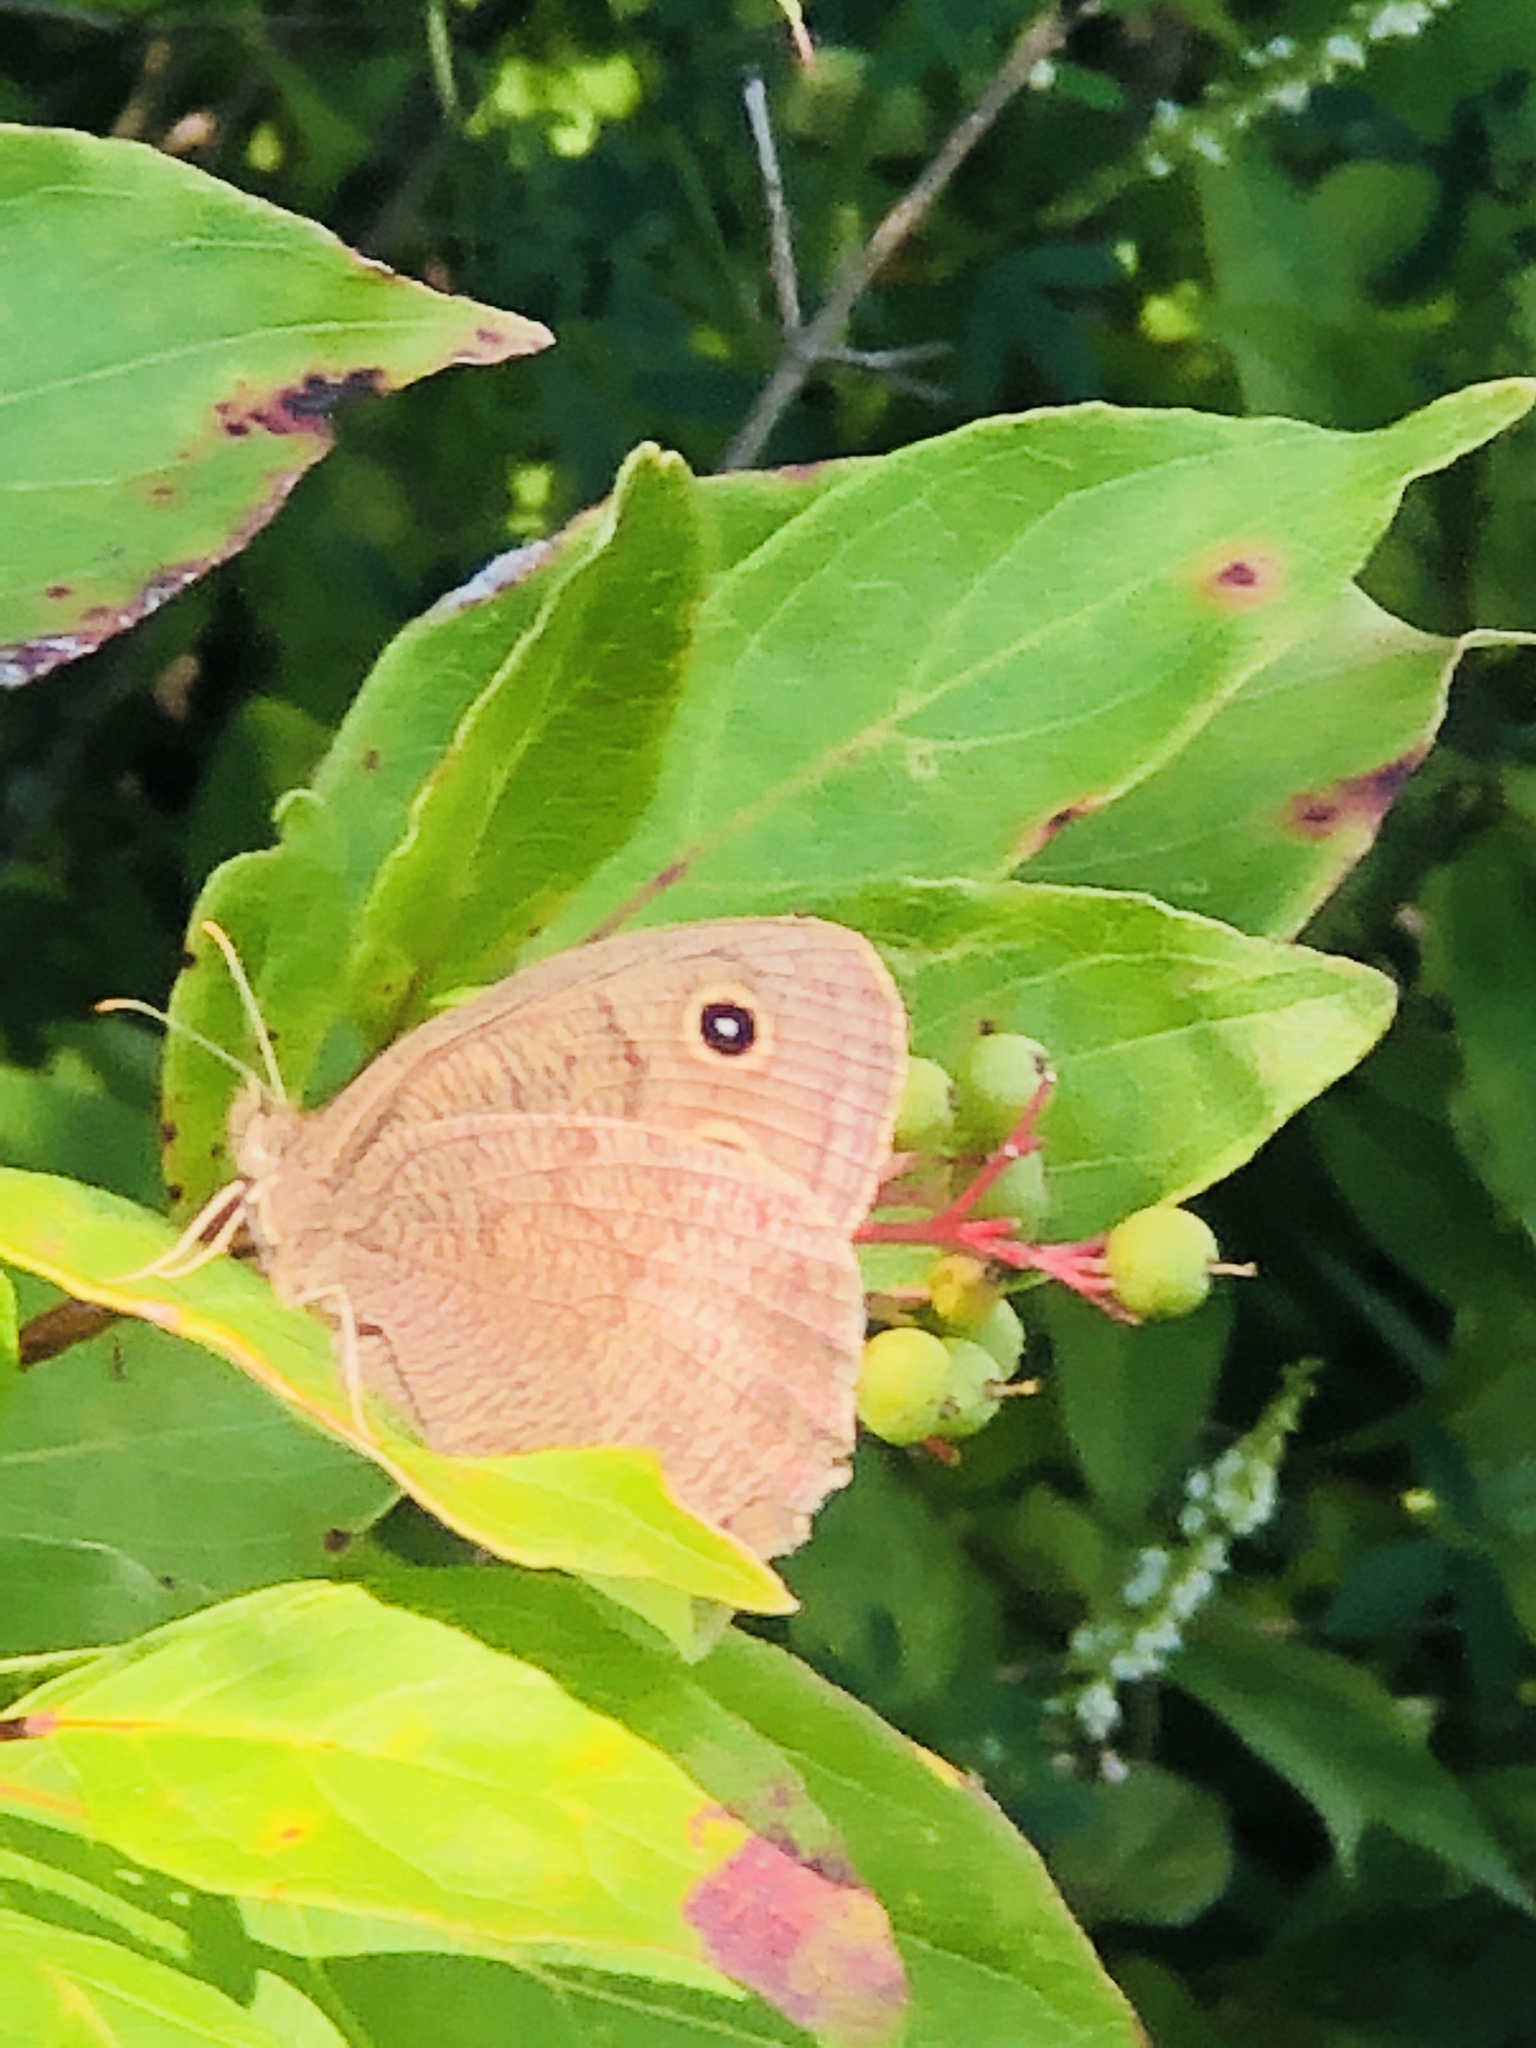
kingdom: Animalia
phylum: Arthropoda
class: Insecta
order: Lepidoptera
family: Nymphalidae
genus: Cercyonis
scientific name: Cercyonis pegala
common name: Common wood-nymph
